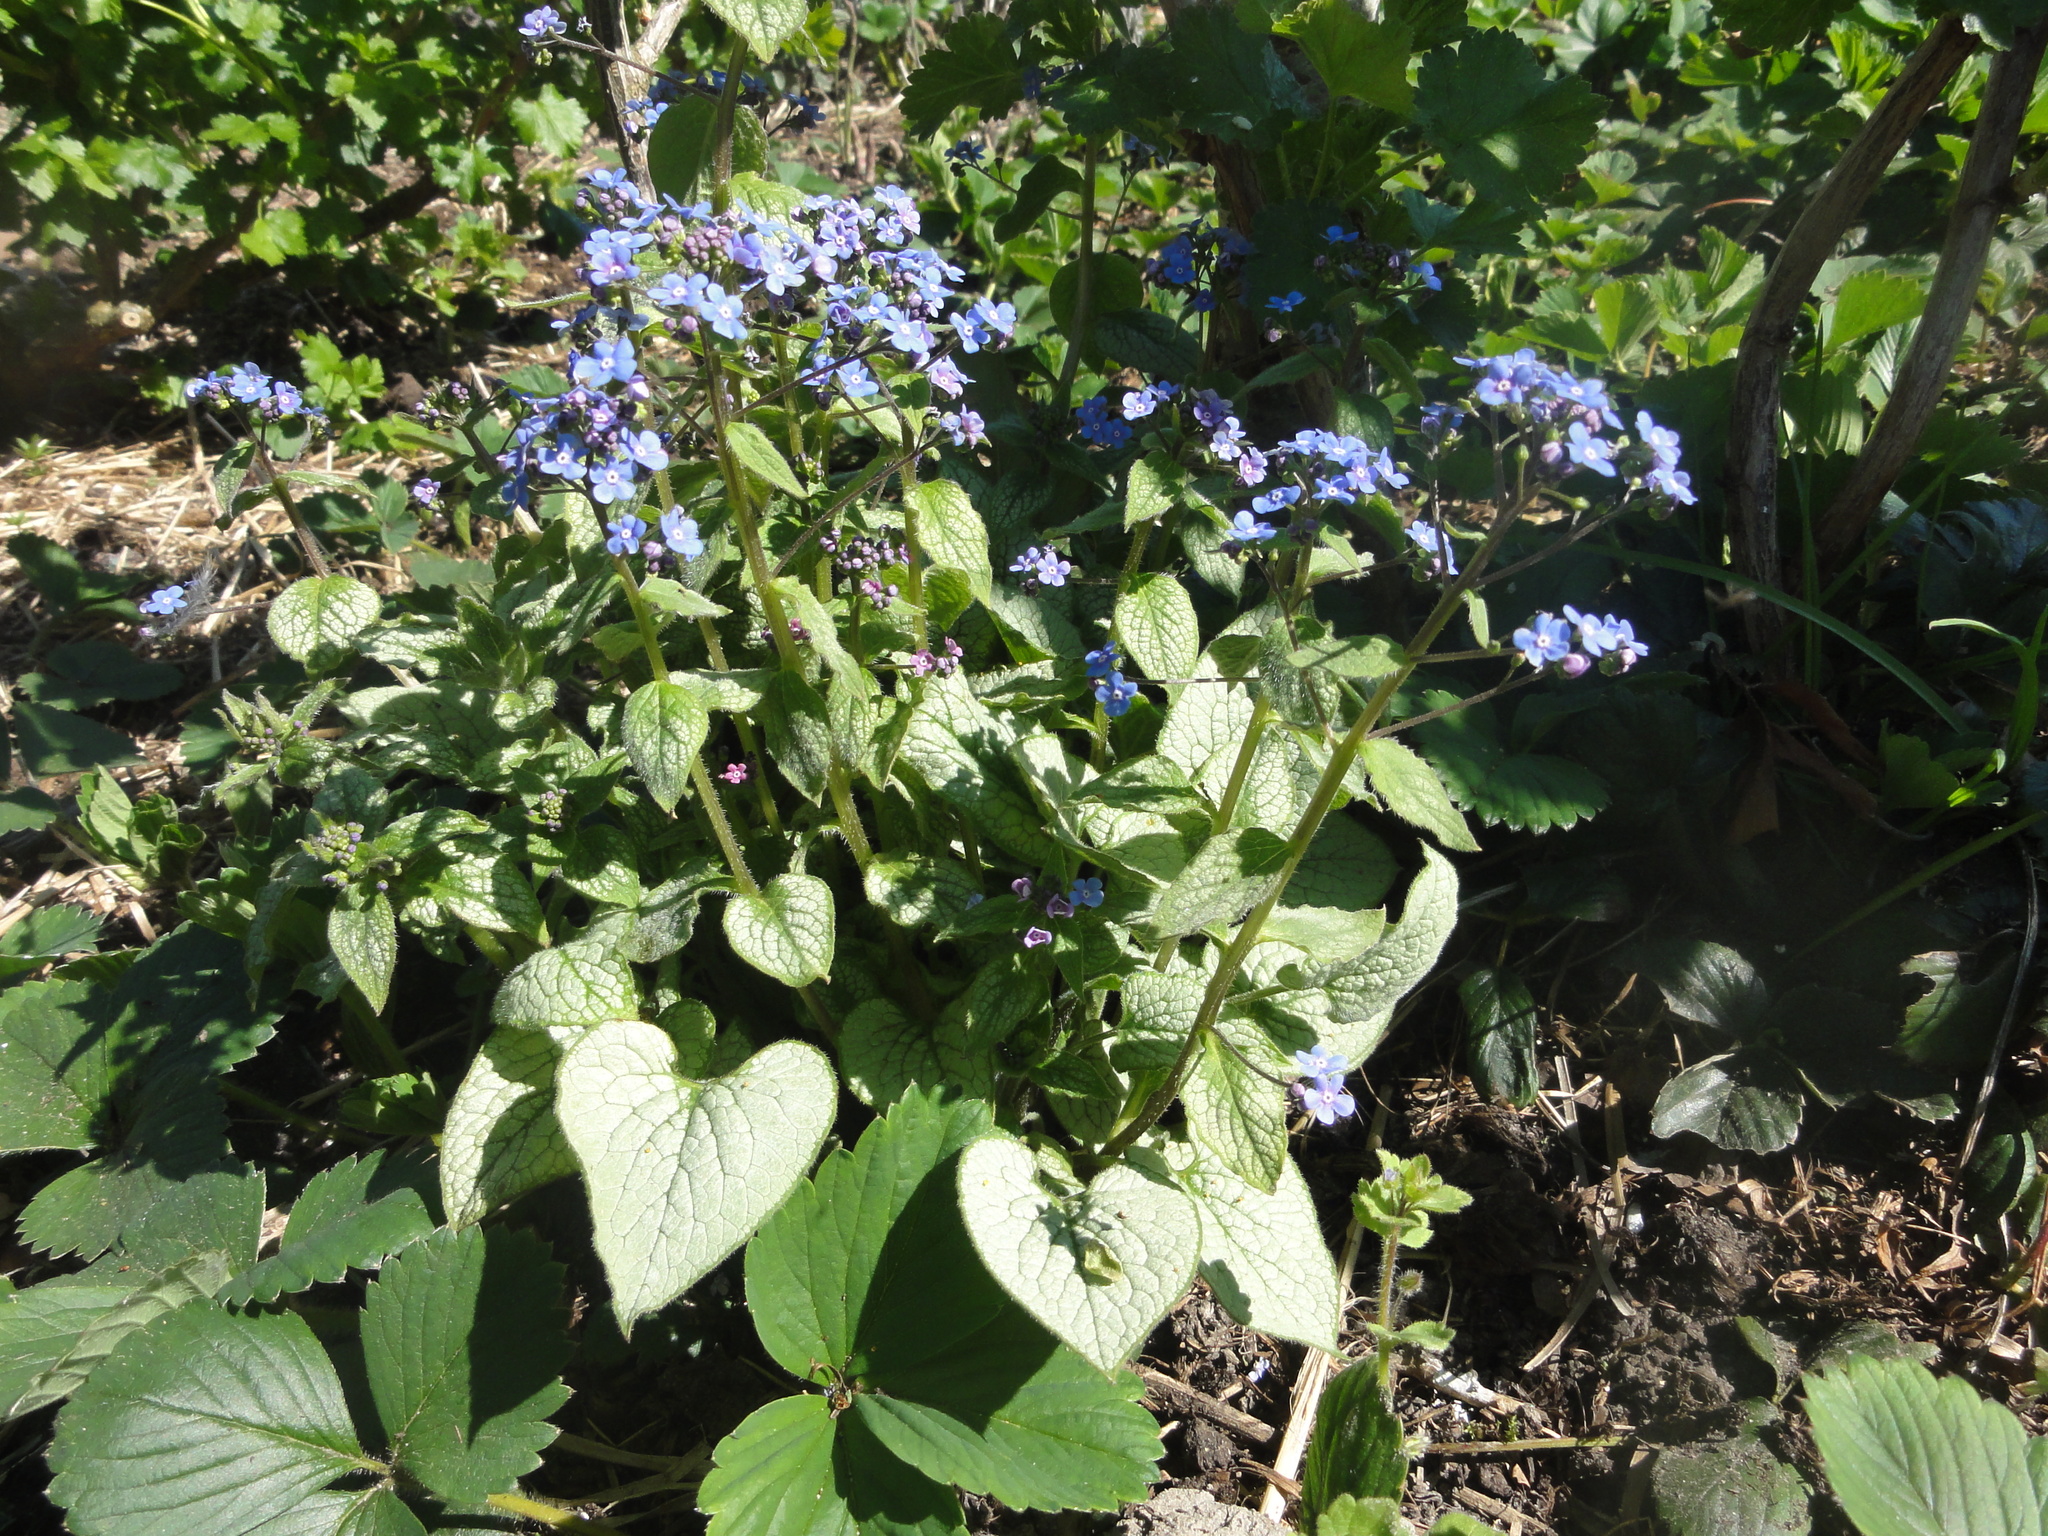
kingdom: Plantae
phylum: Tracheophyta
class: Magnoliopsida
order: Boraginales
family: Boraginaceae
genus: Brunnera
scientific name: Brunnera macrophylla
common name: Great forget-me-not
